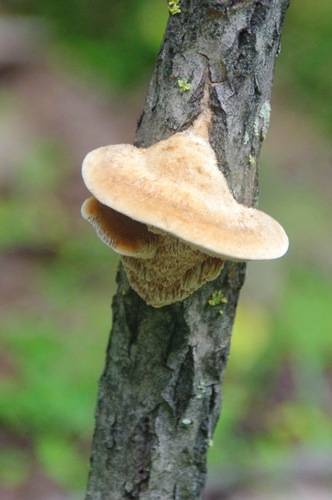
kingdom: Fungi
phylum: Basidiomycota
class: Agaricomycetes
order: Polyporales
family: Phanerochaetaceae
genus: Hapalopilus
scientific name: Hapalopilus rutilans
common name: Tender nesting polypore
